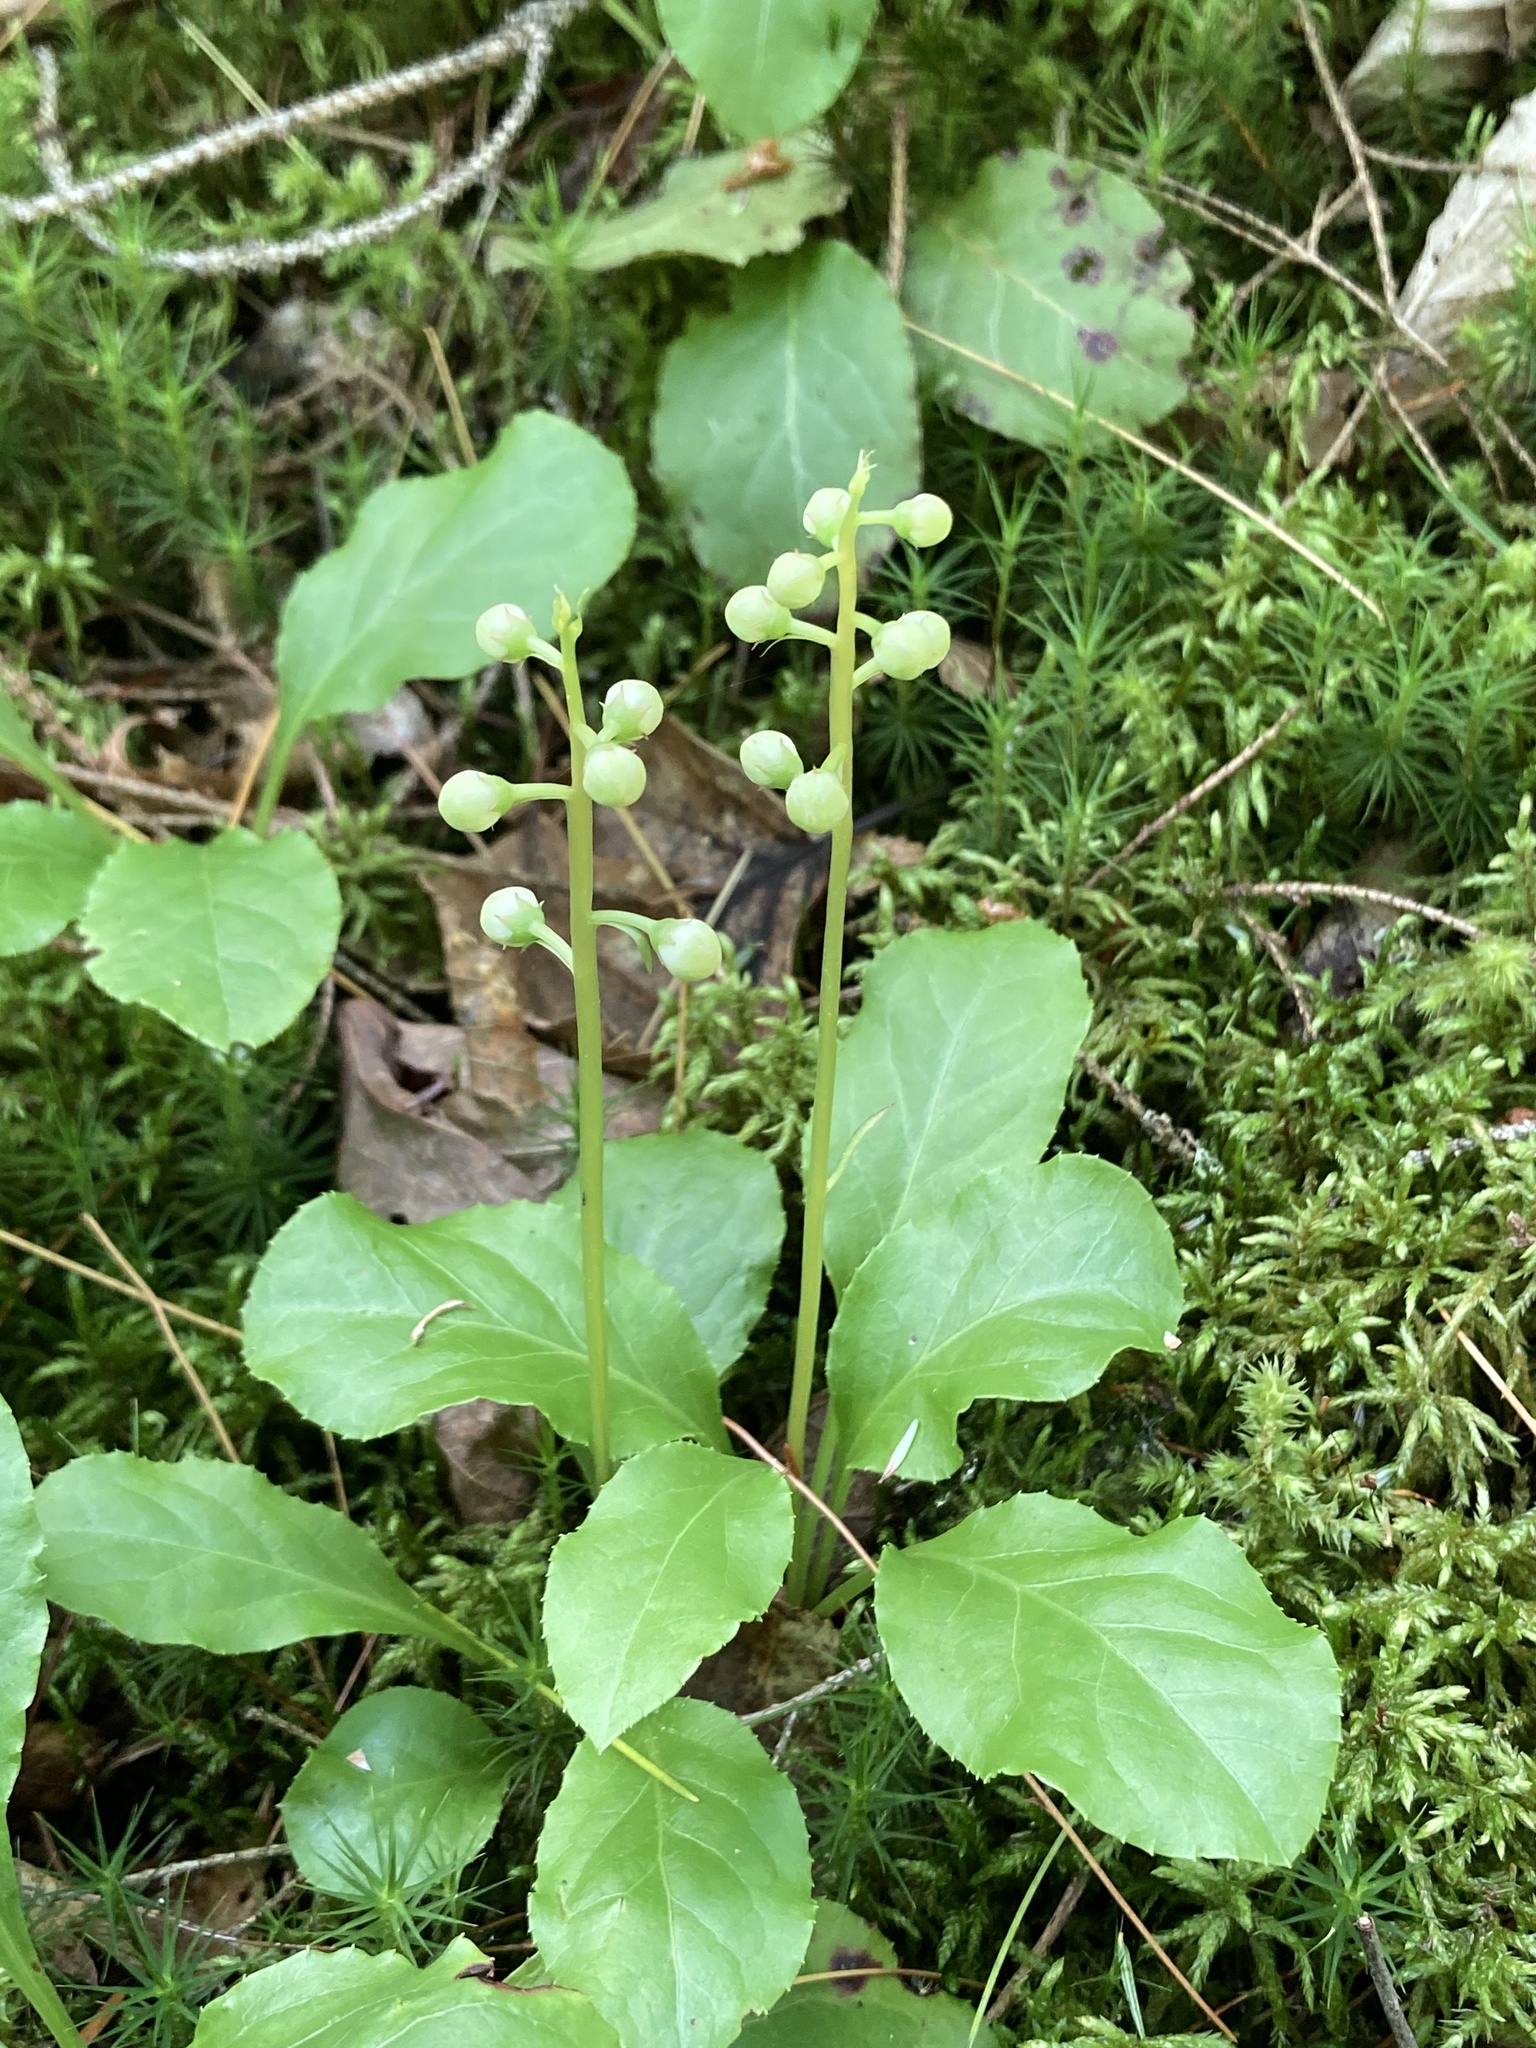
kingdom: Plantae
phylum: Tracheophyta
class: Magnoliopsida
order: Ericales
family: Ericaceae
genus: Pyrola
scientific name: Pyrola elliptica
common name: Shinleaf
